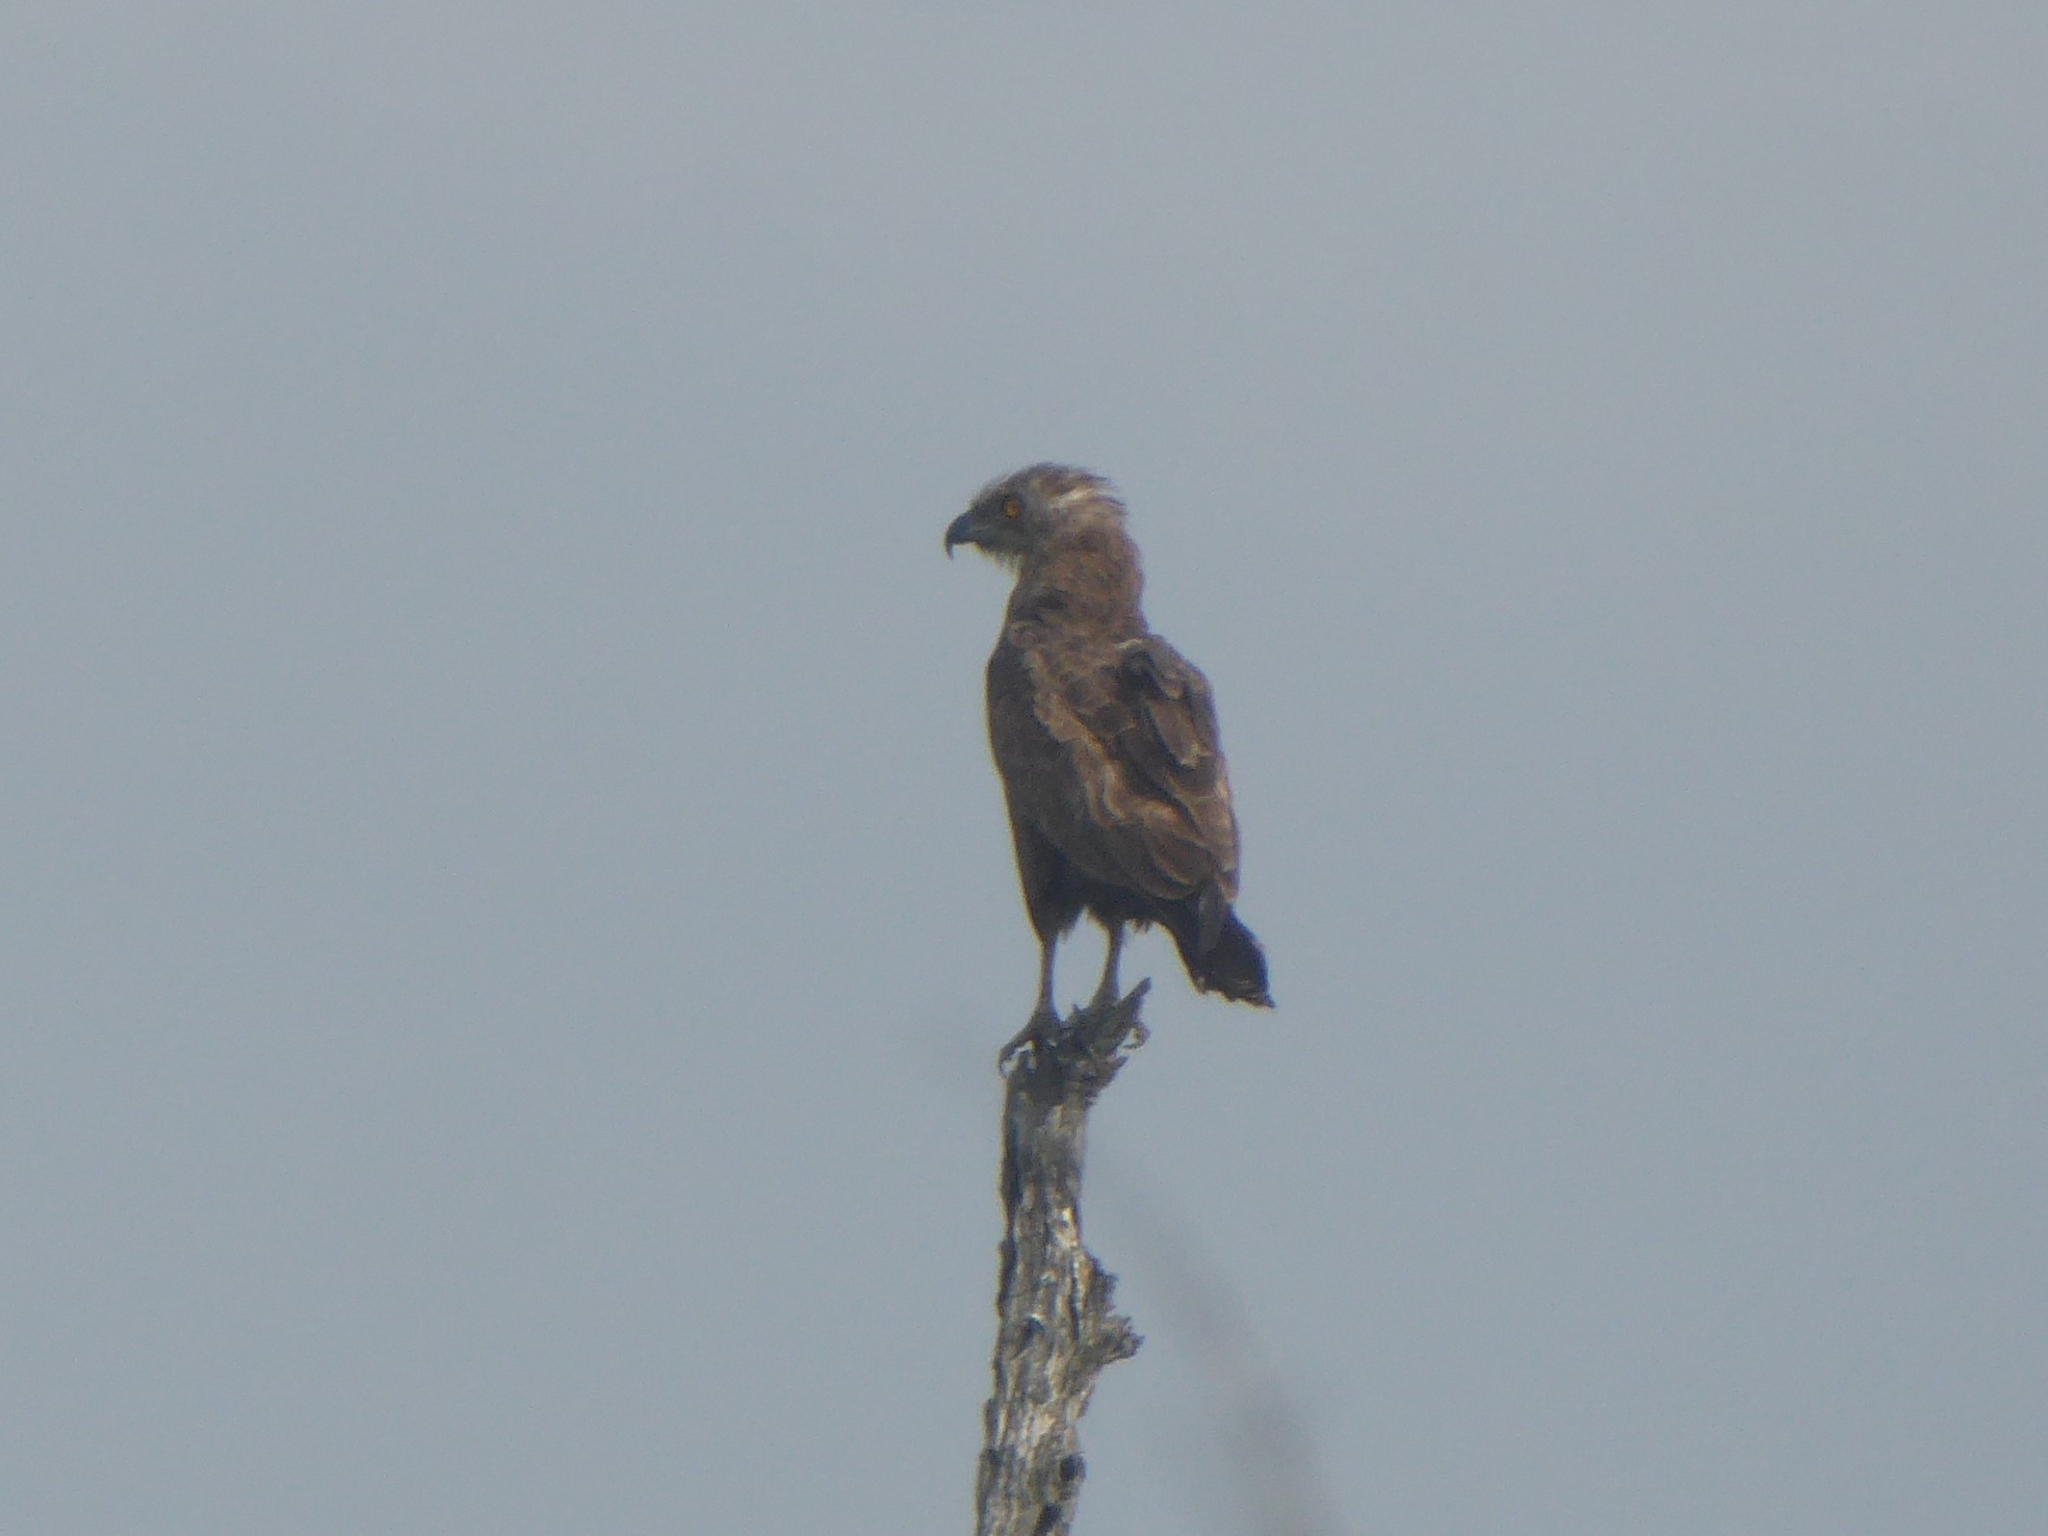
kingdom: Animalia
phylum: Chordata
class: Aves
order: Accipitriformes
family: Accipitridae
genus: Circaetus
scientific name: Circaetus cinereus
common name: Brown snake eagle
